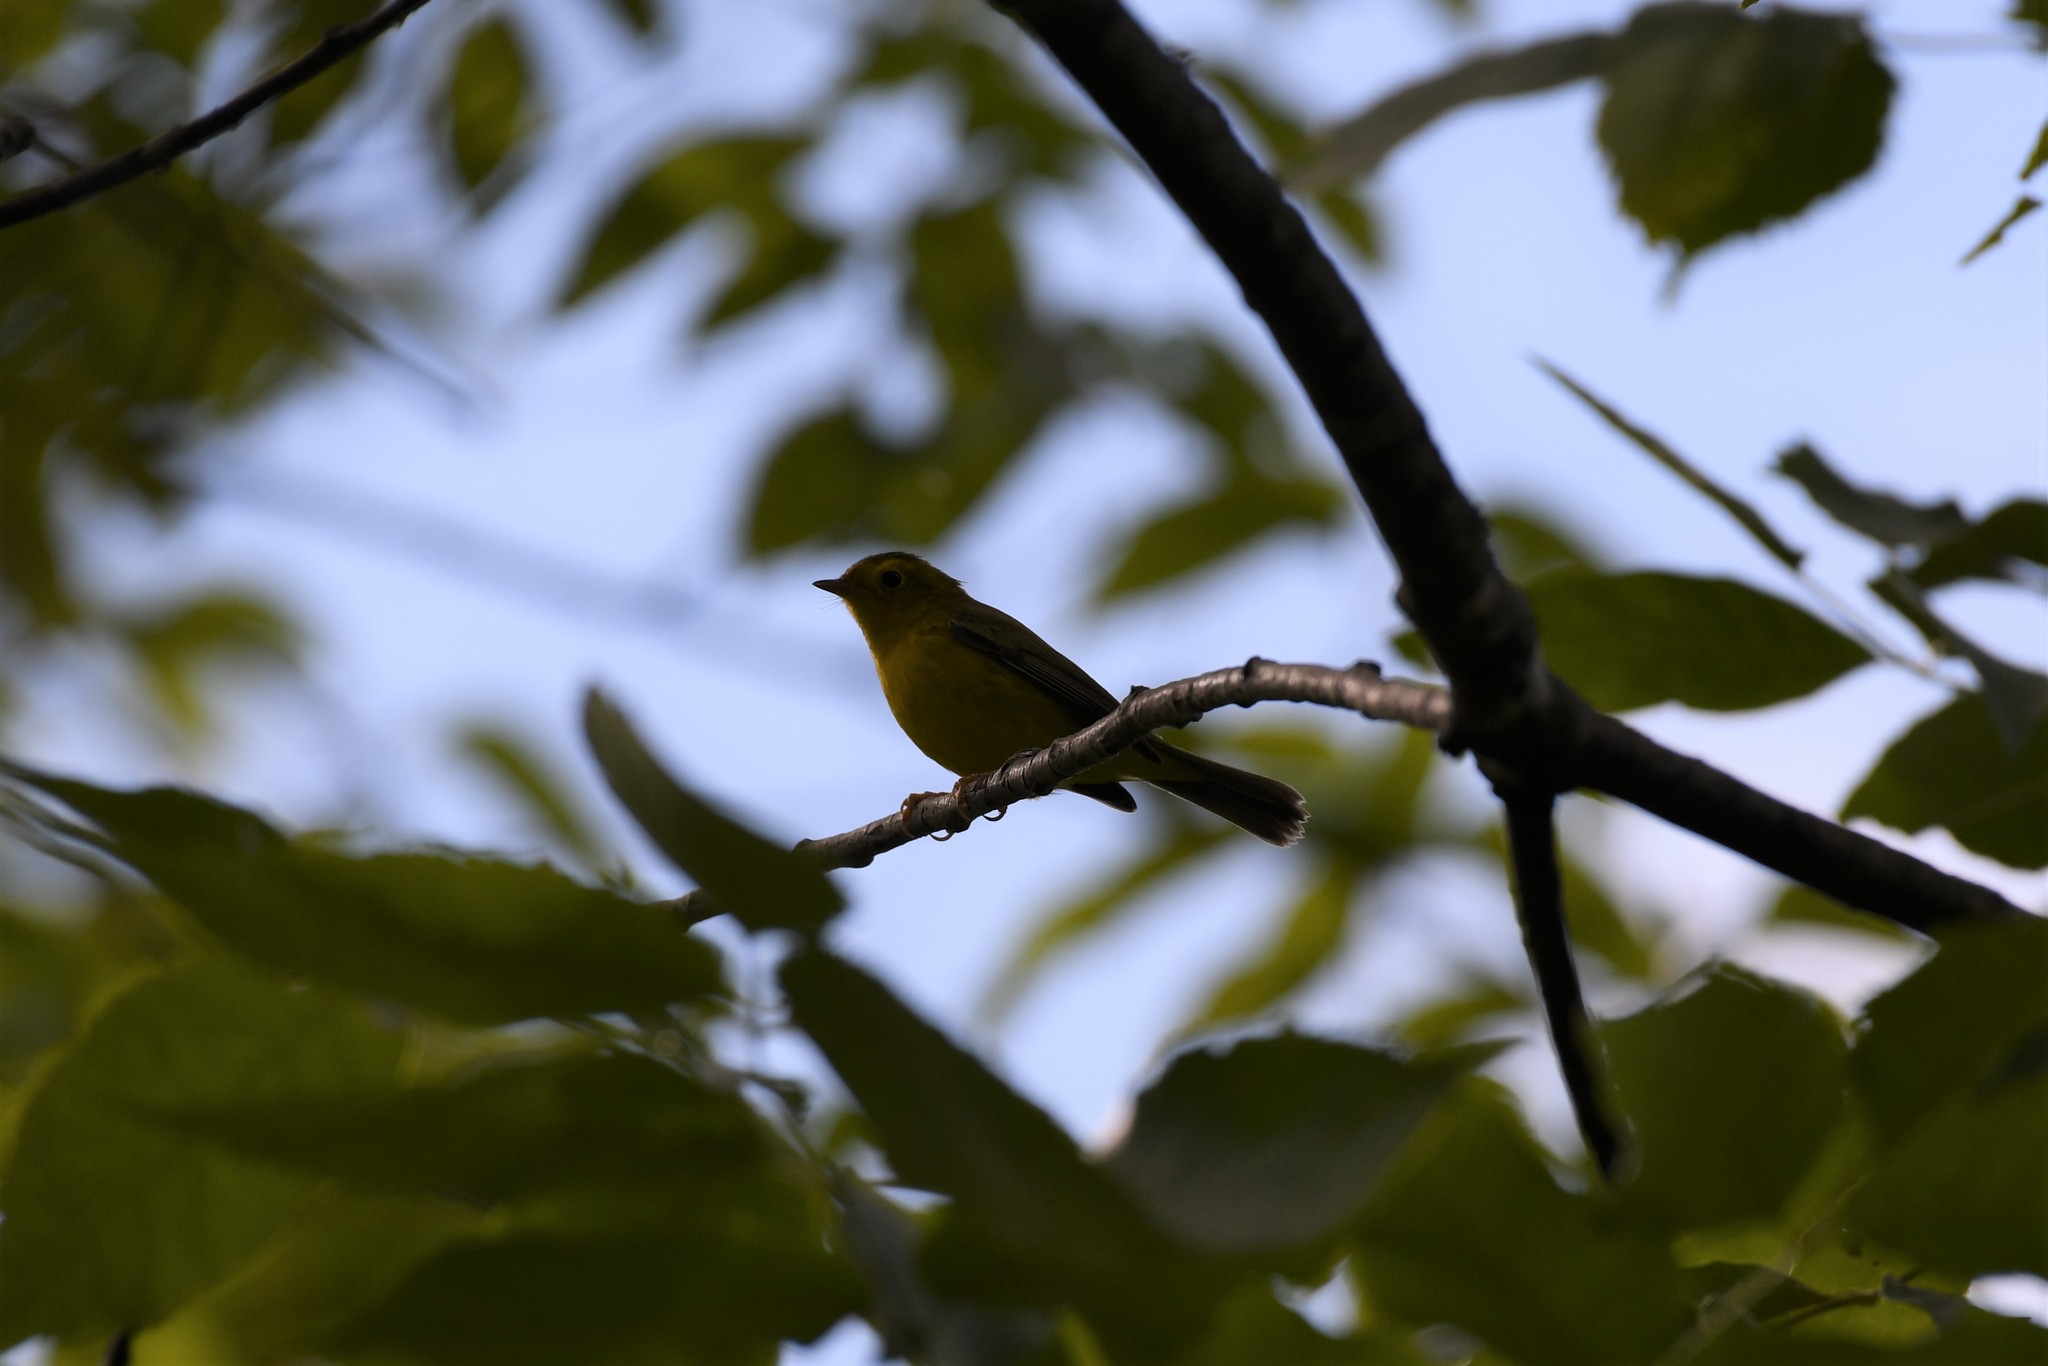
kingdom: Animalia
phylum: Chordata
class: Aves
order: Passeriformes
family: Parulidae
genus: Cardellina
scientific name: Cardellina pusilla
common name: Wilson's warbler
